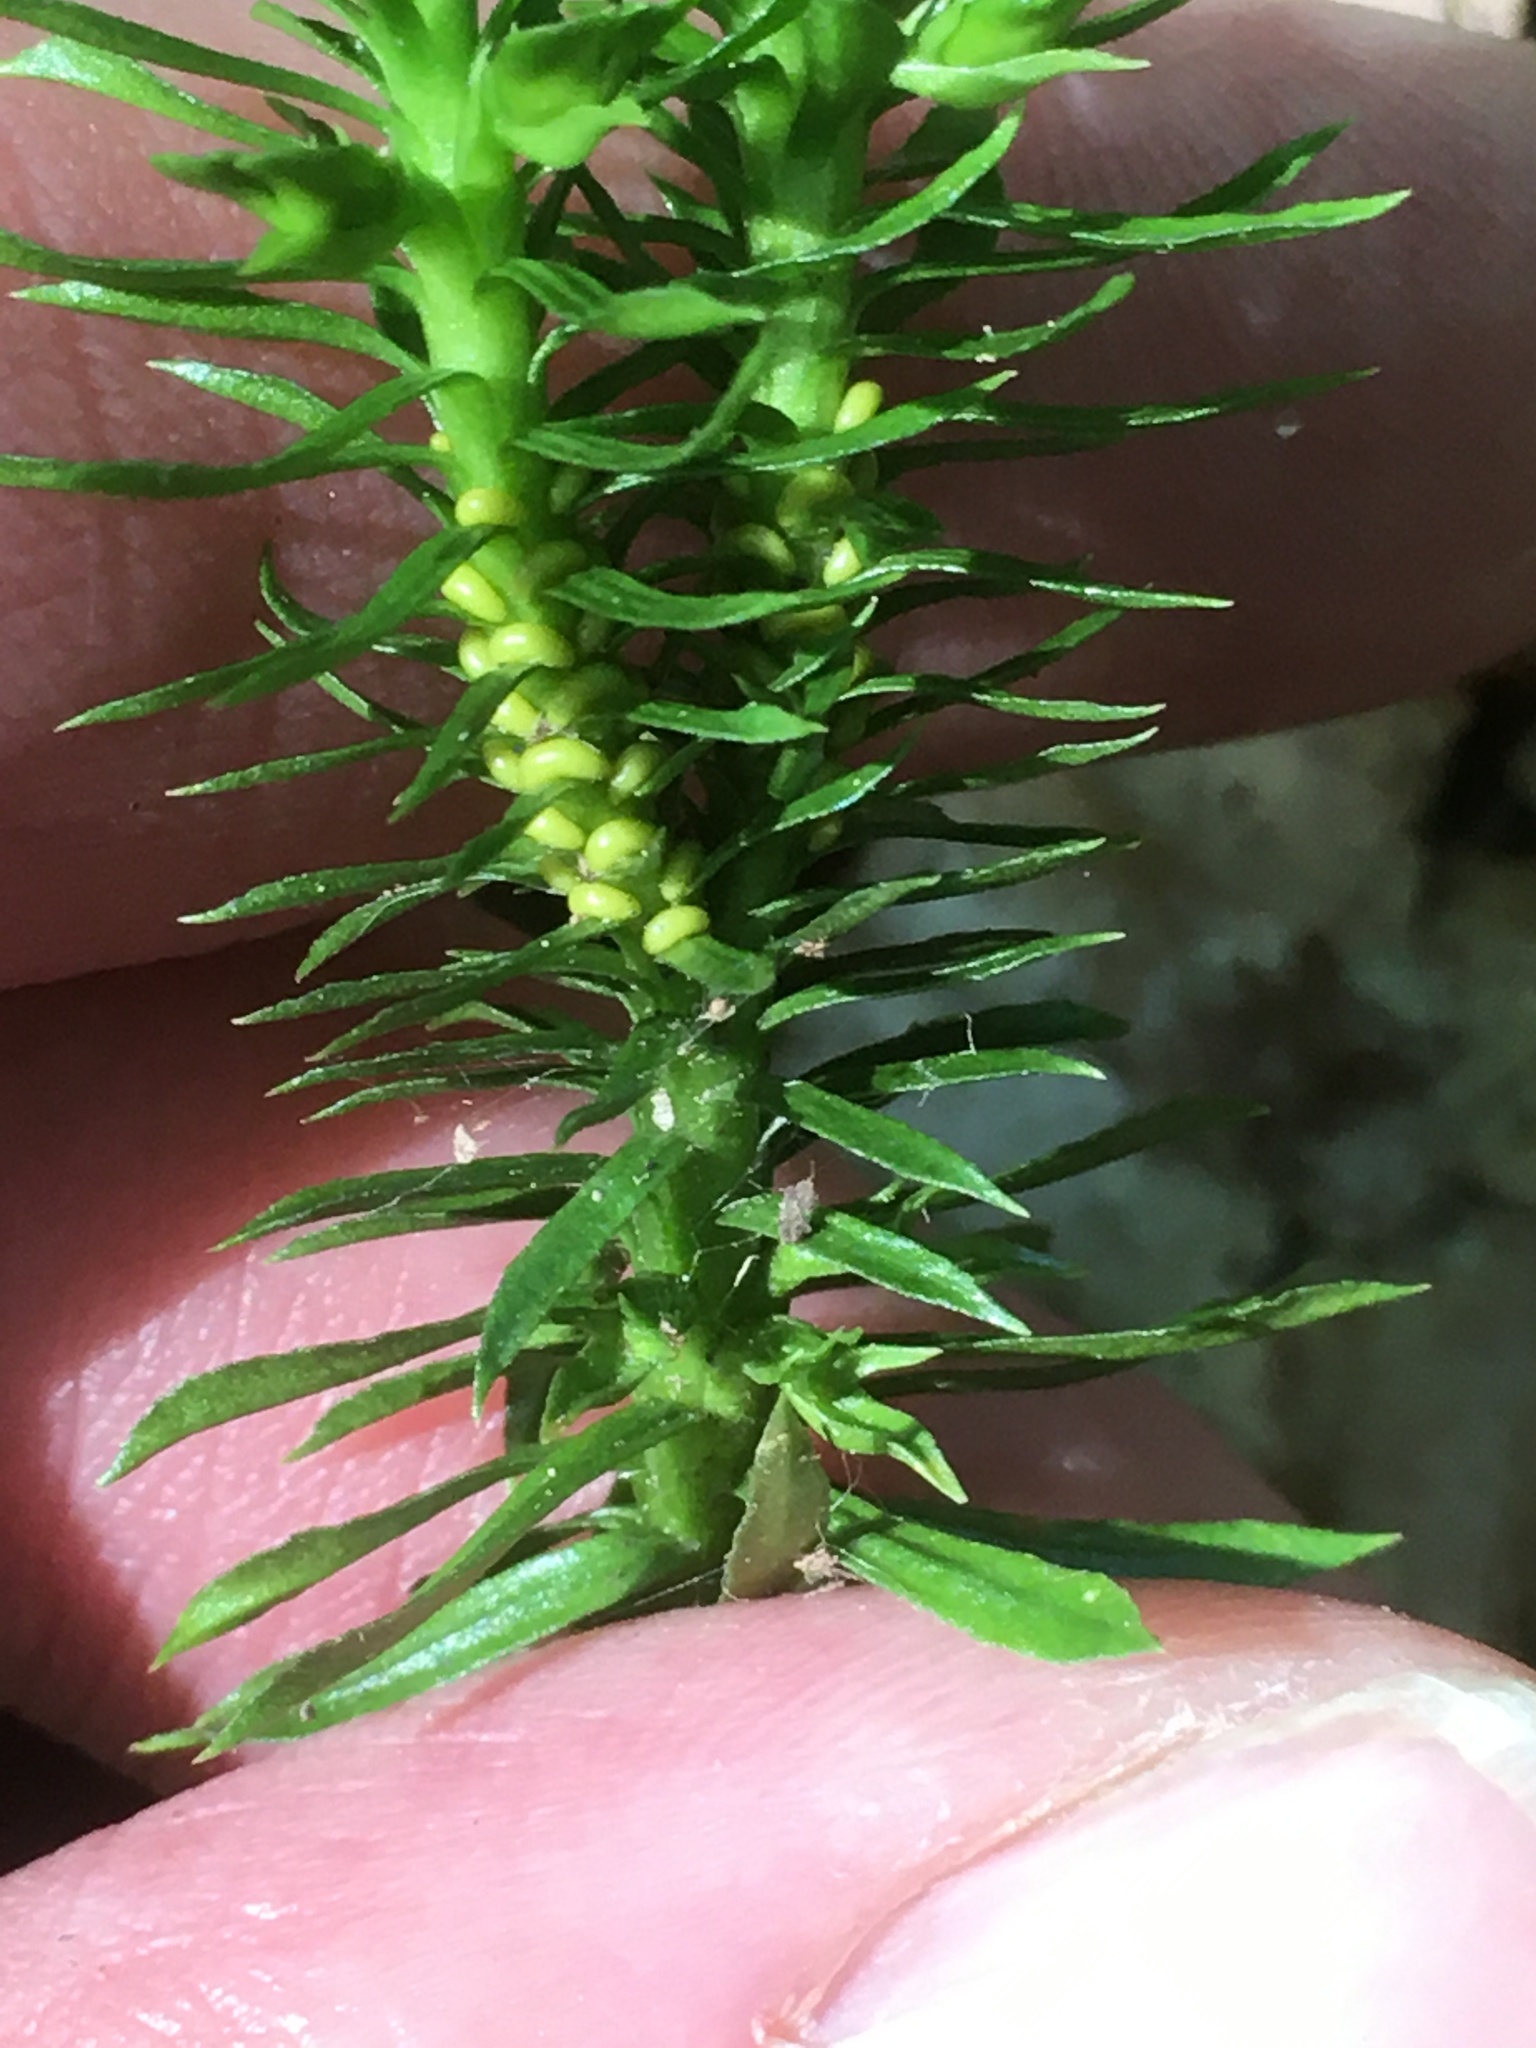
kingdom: Plantae
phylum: Tracheophyta
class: Lycopodiopsida
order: Lycopodiales
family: Lycopodiaceae
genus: Huperzia
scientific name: Huperzia lucidula
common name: Shining clubmoss
